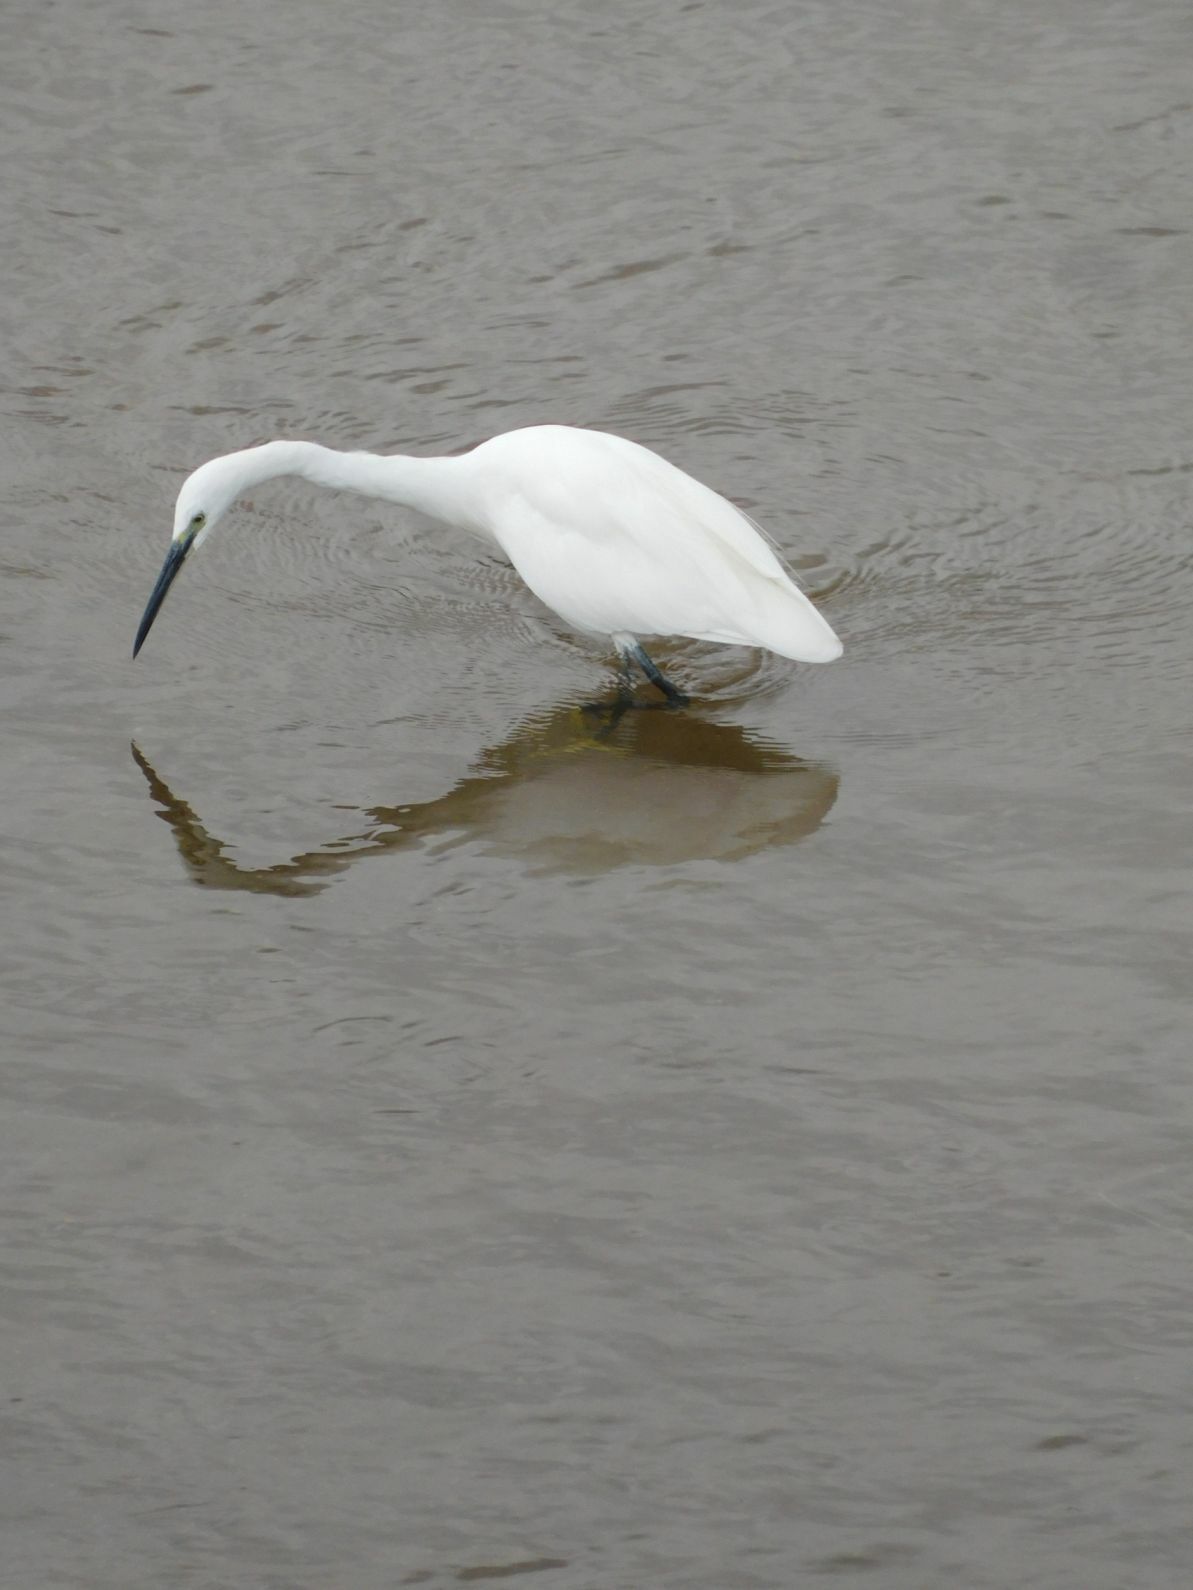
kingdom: Animalia
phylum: Chordata
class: Aves
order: Pelecaniformes
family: Ardeidae
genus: Egretta
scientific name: Egretta garzetta
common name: Little egret
